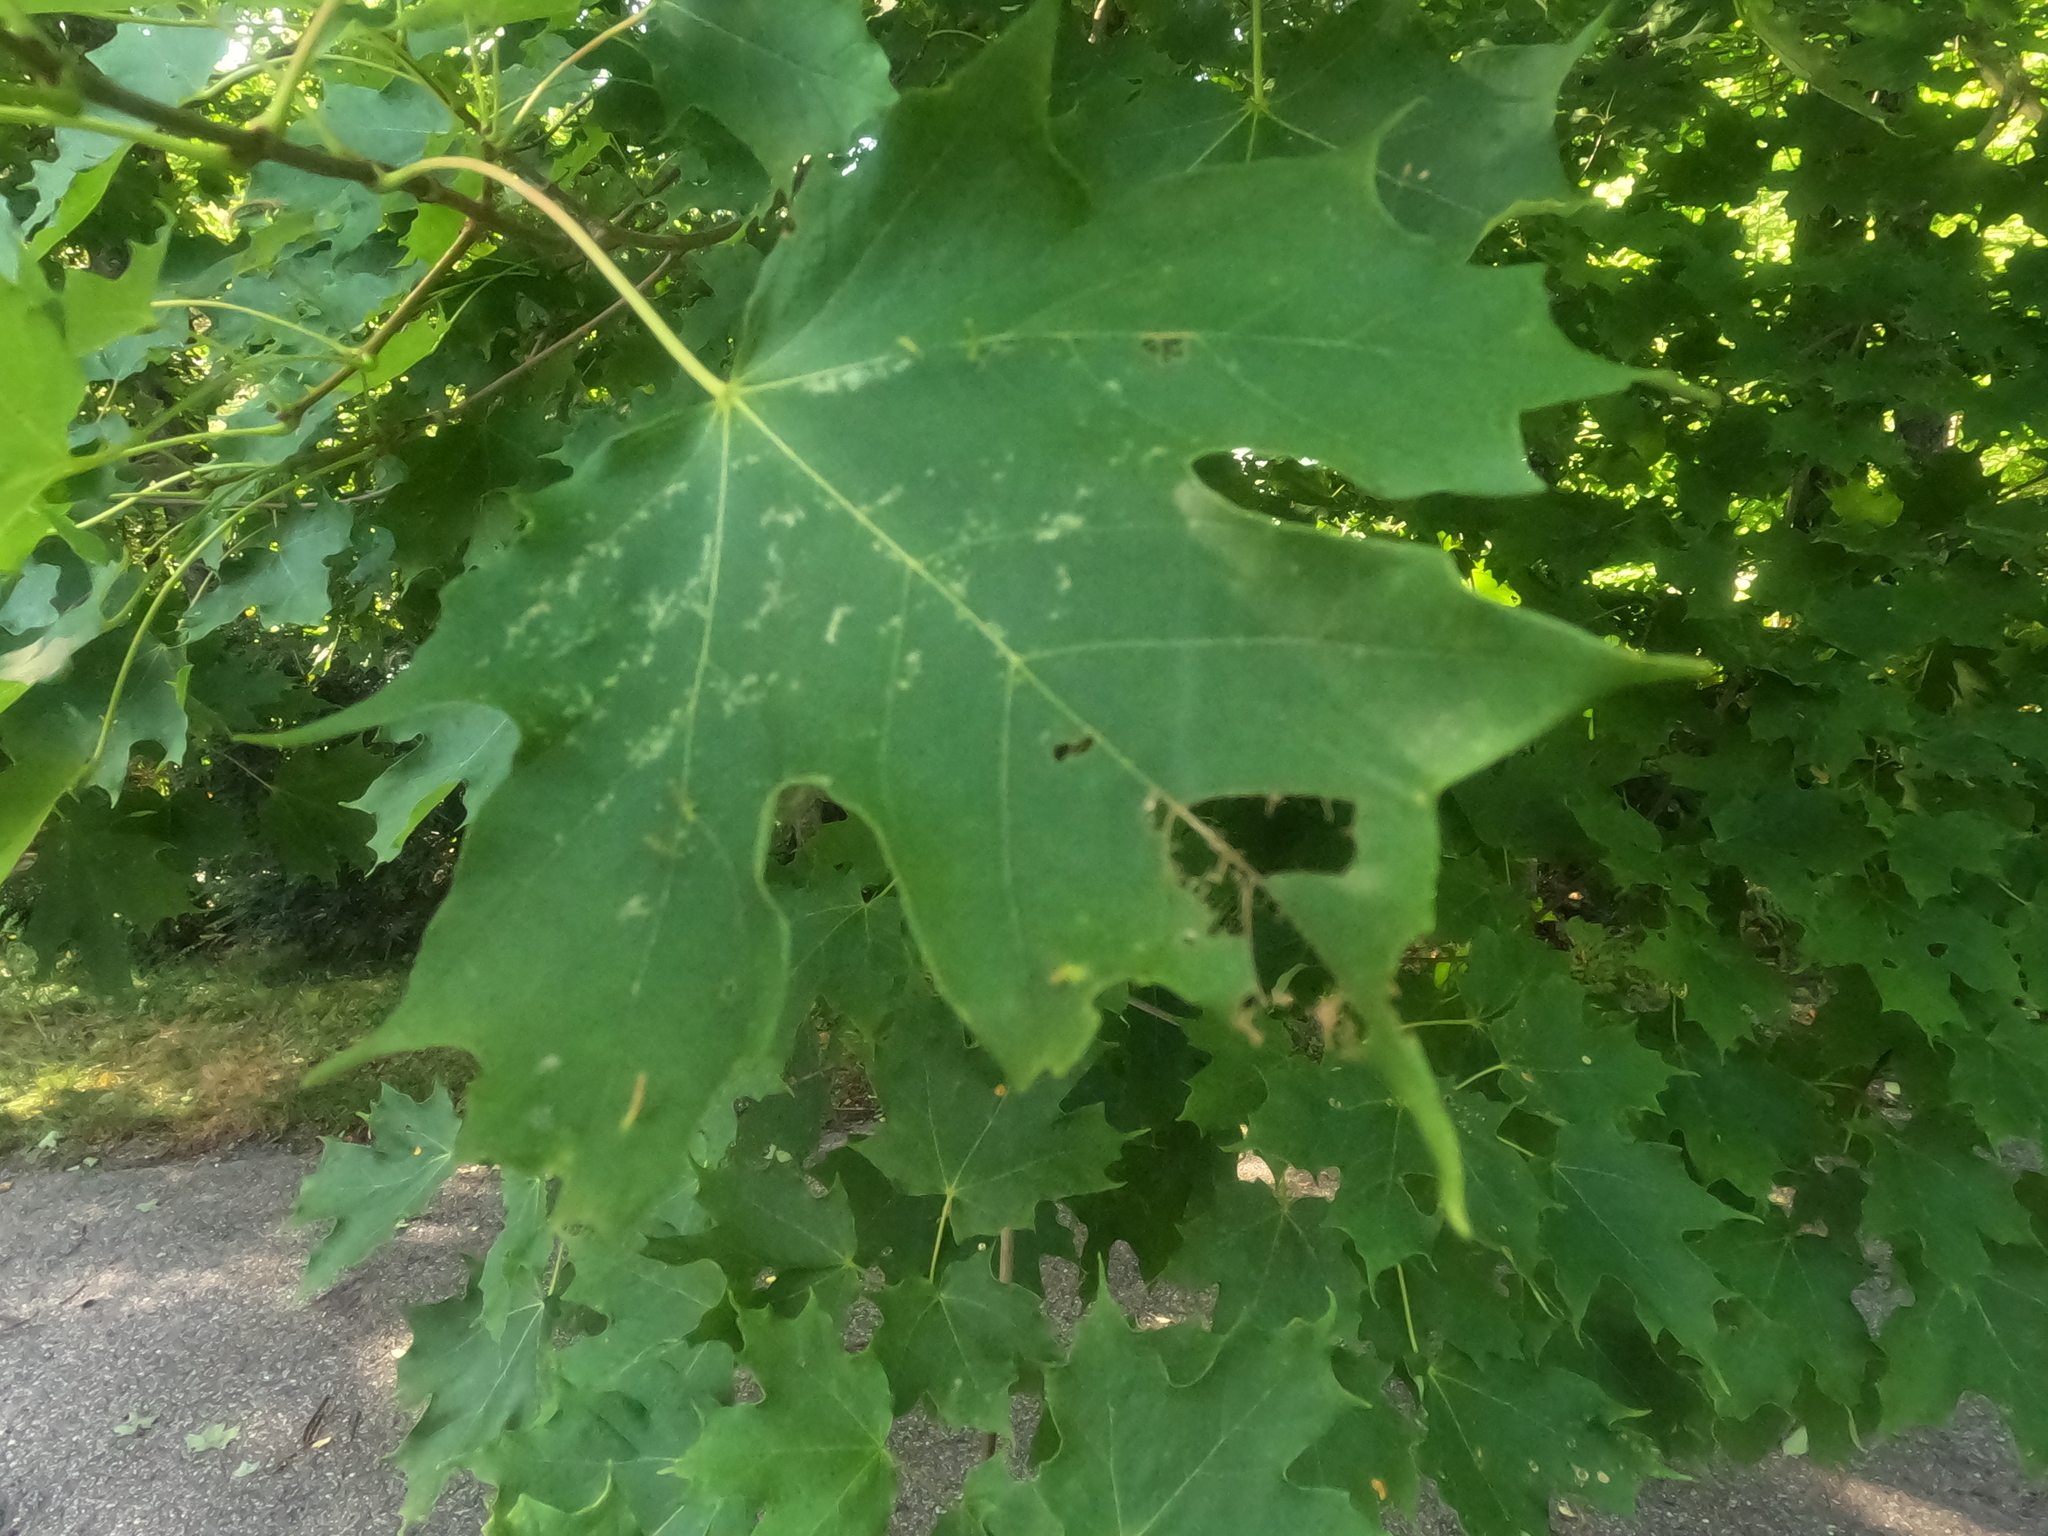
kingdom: Plantae
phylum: Tracheophyta
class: Magnoliopsida
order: Sapindales
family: Sapindaceae
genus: Acer
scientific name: Acer saccharum
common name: Sugar maple
